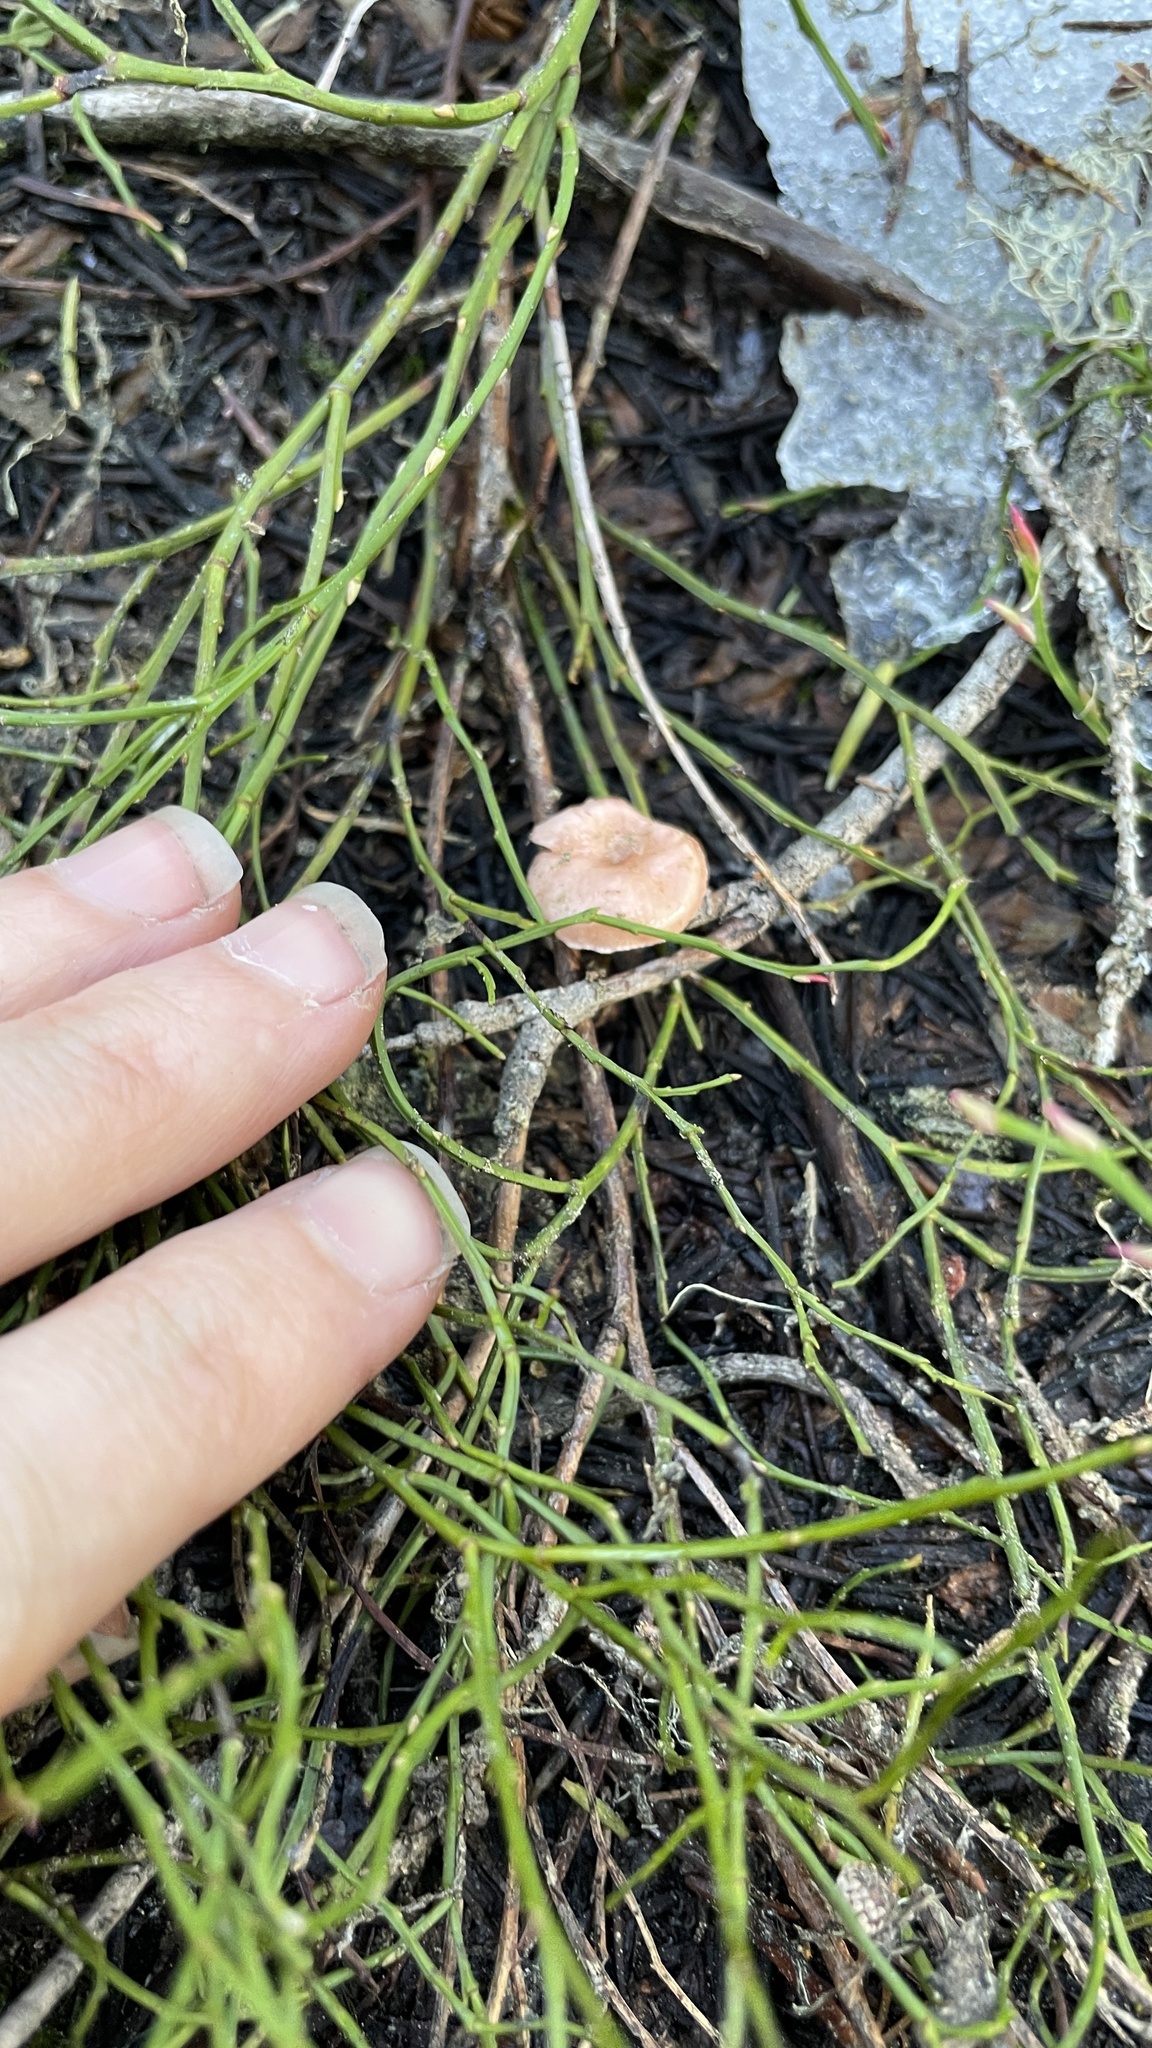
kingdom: Fungi
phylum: Basidiomycota
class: Agaricomycetes
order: Agaricales
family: Hygrophoraceae
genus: Hygrophorus
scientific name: Hygrophorus goetzei
